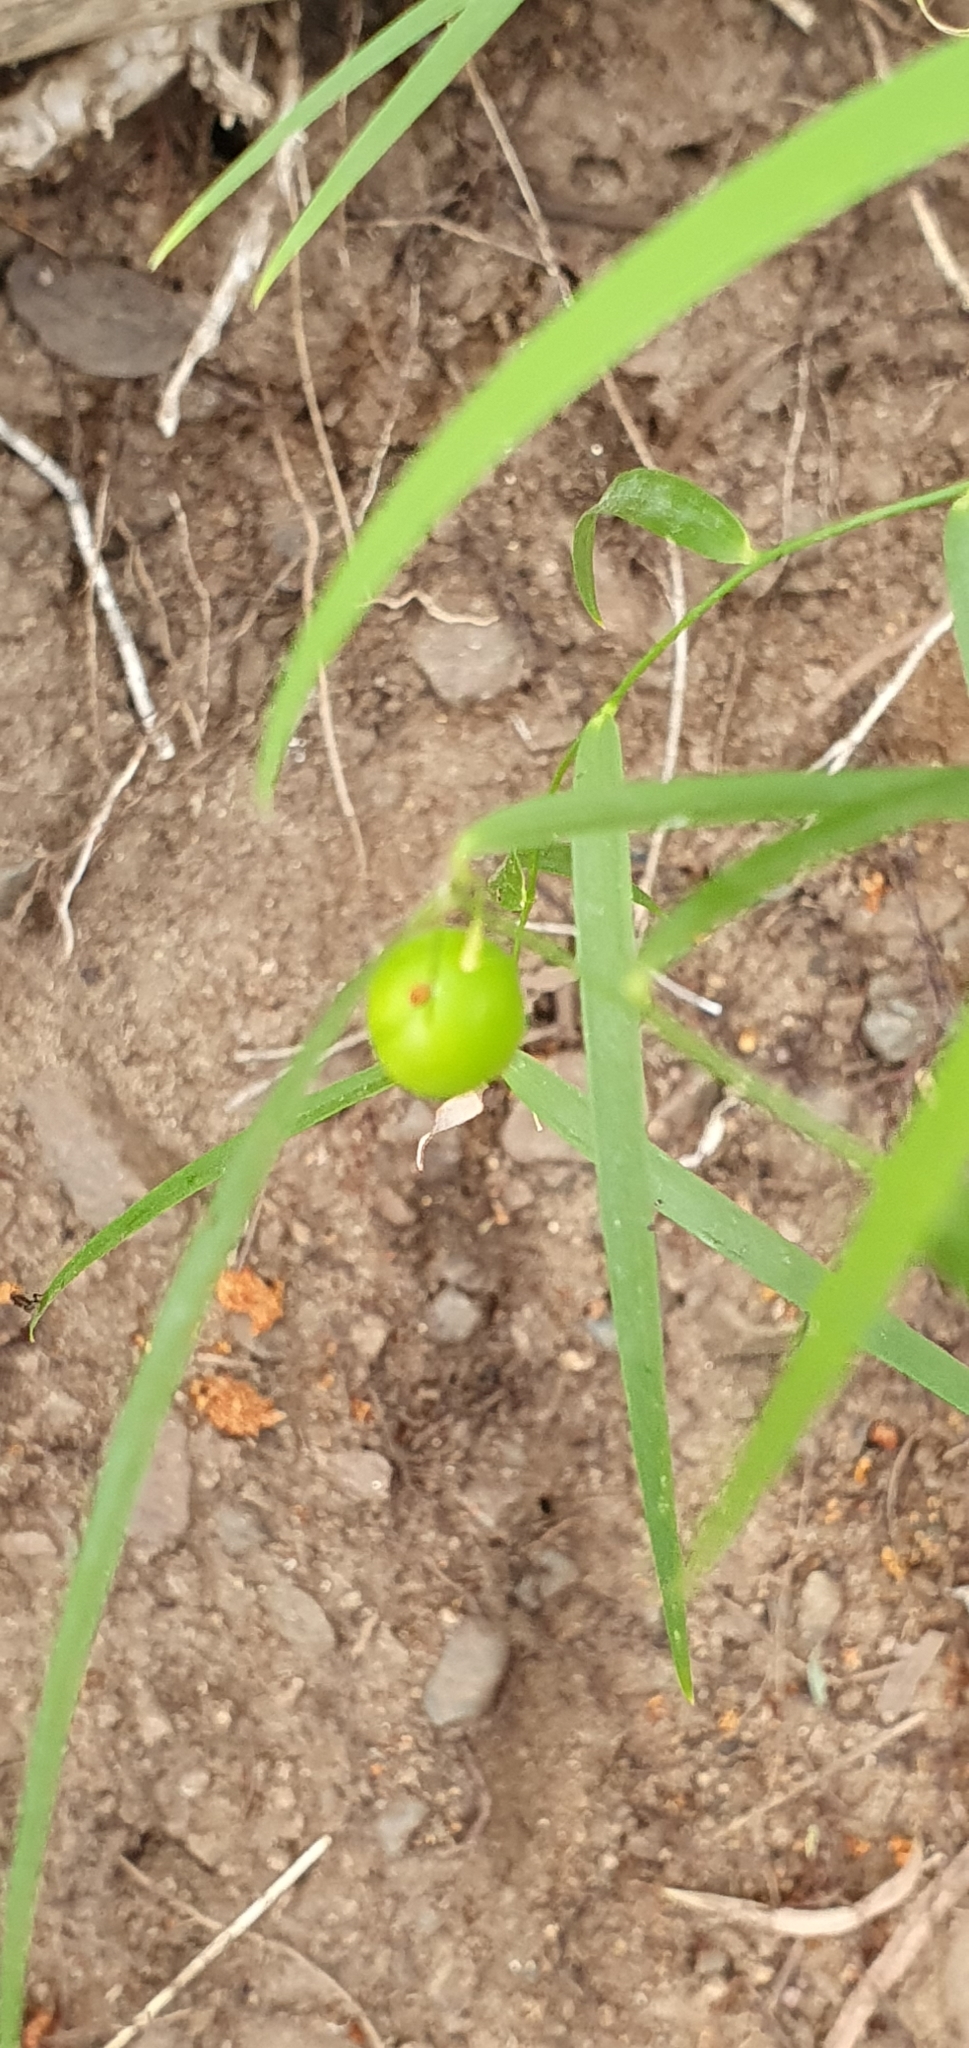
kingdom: Plantae
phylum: Tracheophyta
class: Liliopsida
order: Asparagales
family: Asparagaceae
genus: Eustrephus
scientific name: Eustrephus latifolius
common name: Orangevine
